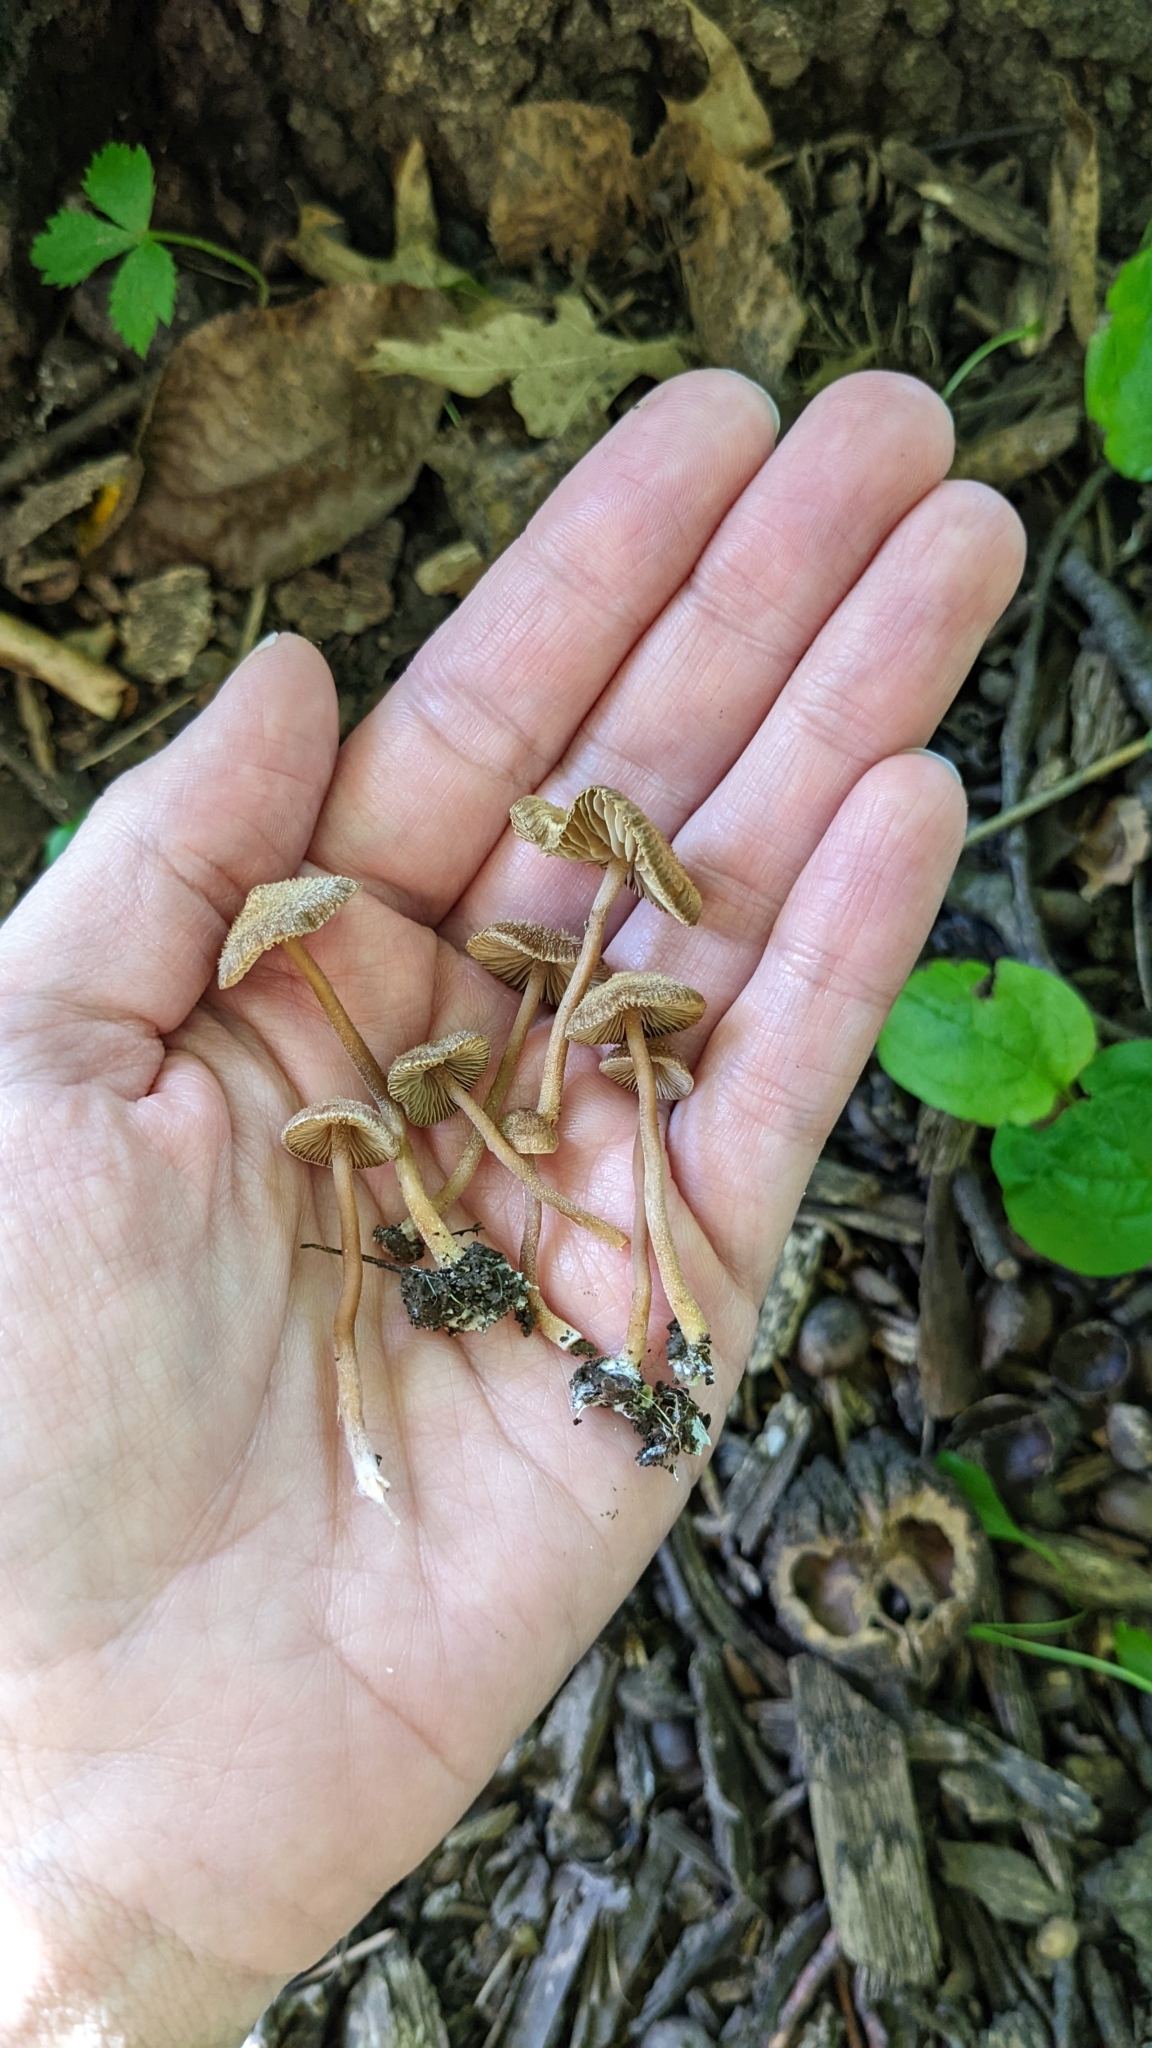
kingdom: Fungi
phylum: Basidiomycota
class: Agaricomycetes
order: Agaricales
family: Inocybaceae
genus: Inocybe
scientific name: Inocybe subfulva
